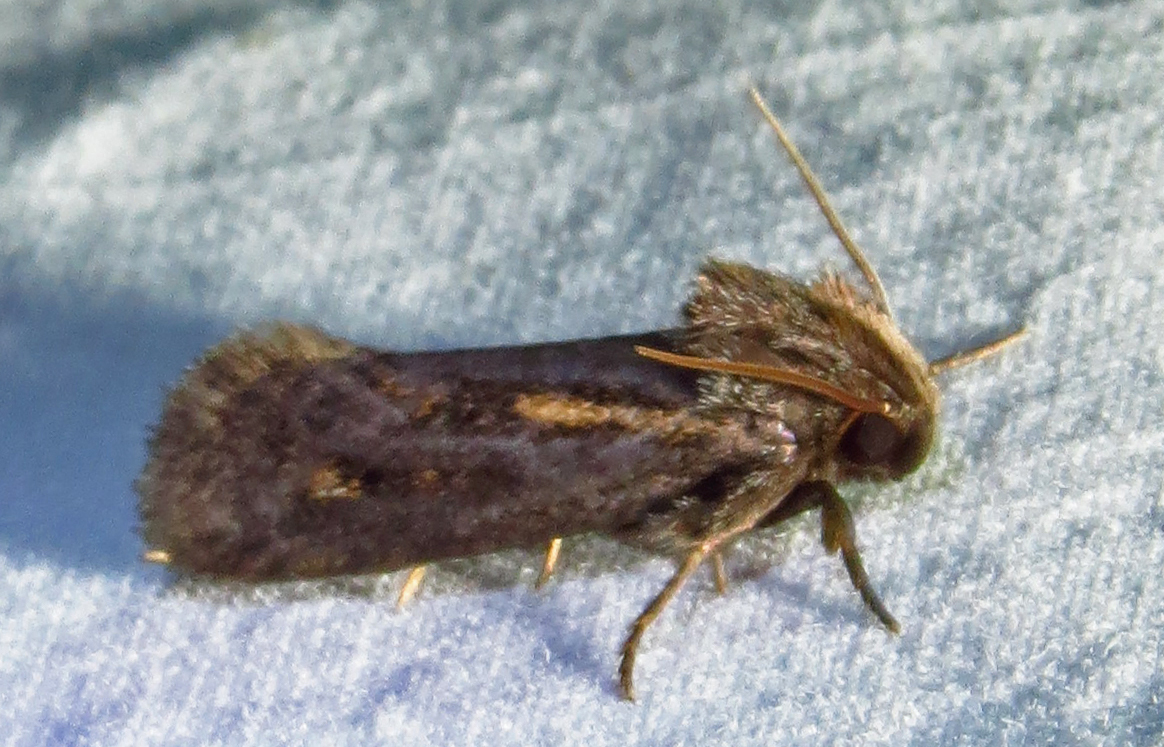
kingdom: Animalia
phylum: Arthropoda
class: Insecta
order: Lepidoptera
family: Tineidae
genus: Acrolophus
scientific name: Acrolophus popeanella
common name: Clemens' grass tubeworm moth
